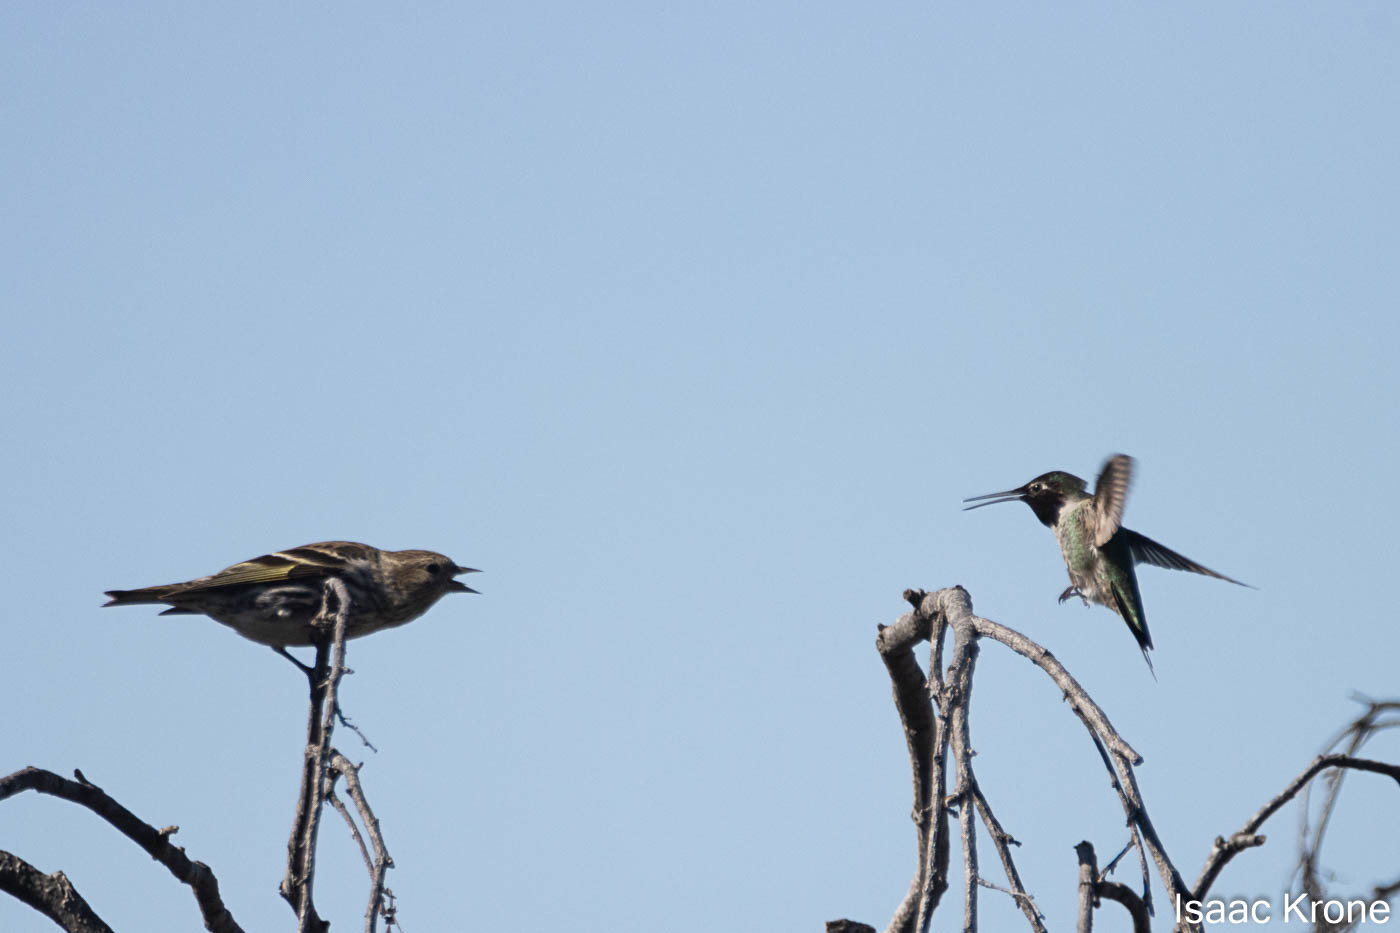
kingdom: Animalia
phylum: Chordata
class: Aves
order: Apodiformes
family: Trochilidae
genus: Calypte
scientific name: Calypte anna
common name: Anna's hummingbird
